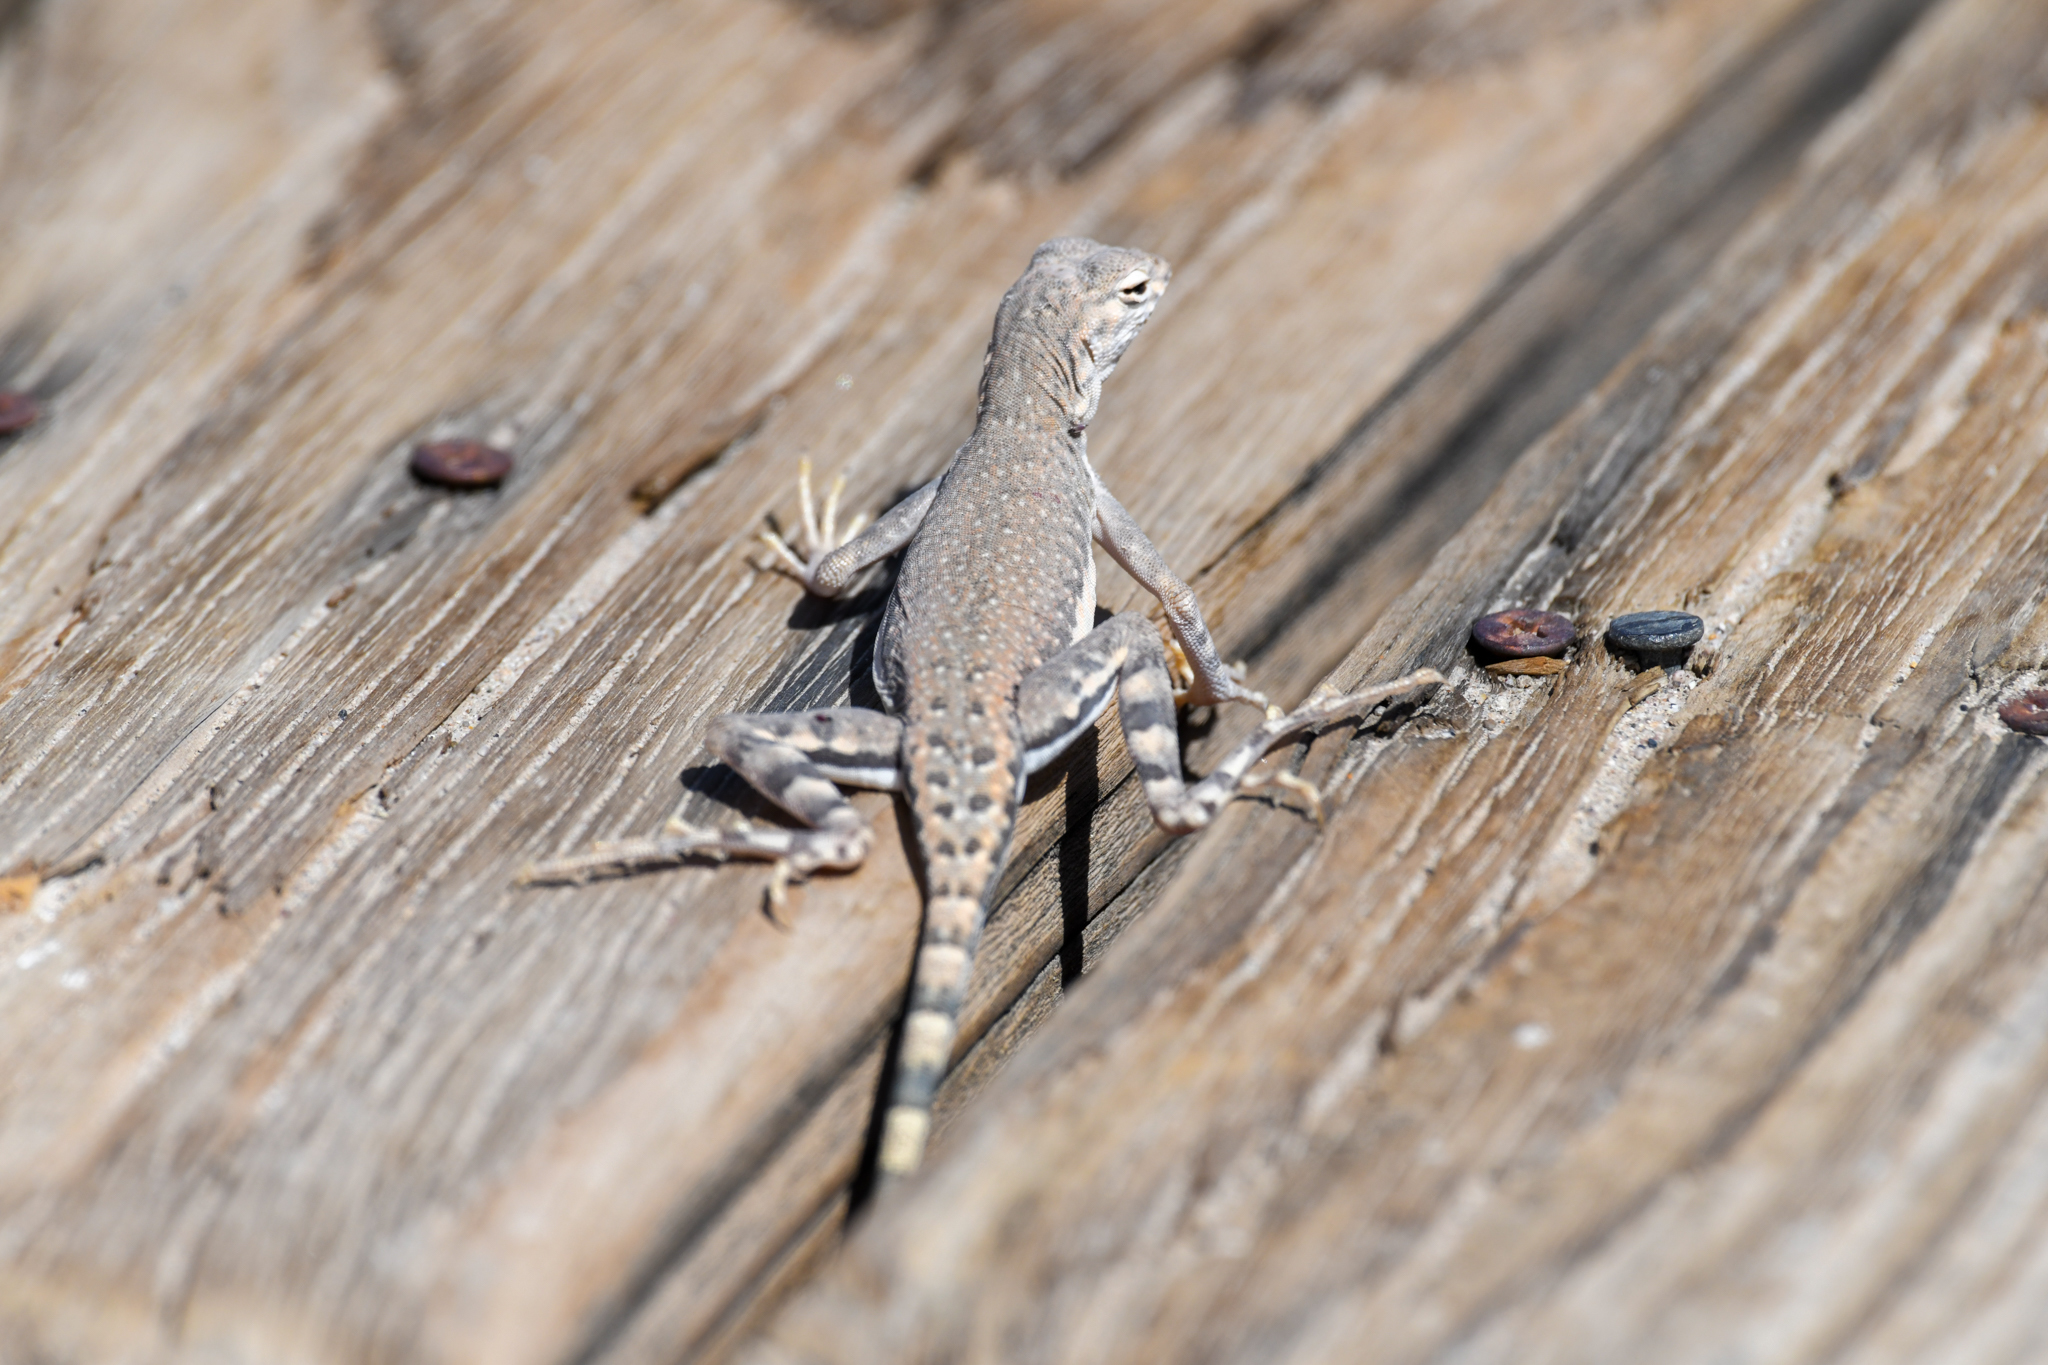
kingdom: Animalia
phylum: Chordata
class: Squamata
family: Phrynosomatidae
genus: Callisaurus
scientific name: Callisaurus draconoides
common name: Zebra-tailed lizard
